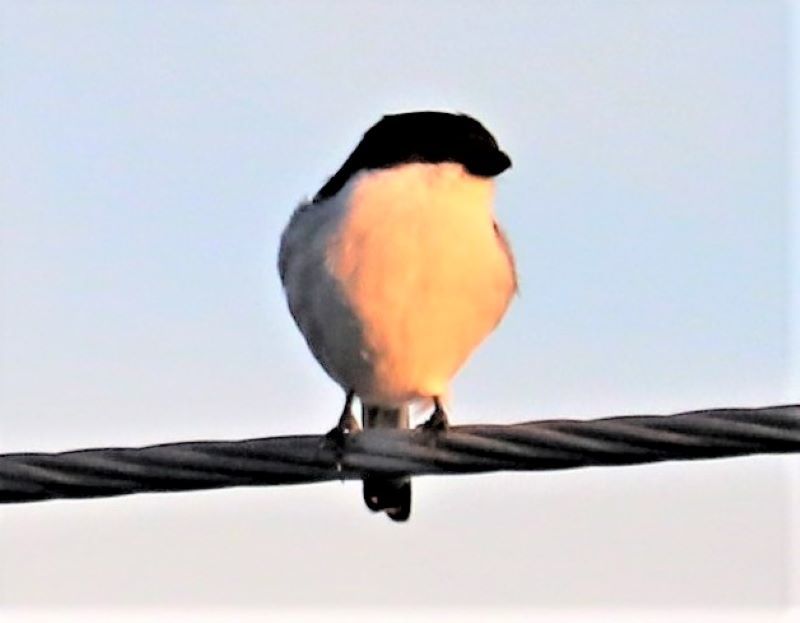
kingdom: Animalia
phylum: Chordata
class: Aves
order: Passeriformes
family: Laniidae
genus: Lanius
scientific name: Lanius collaris
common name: Southern fiscal
